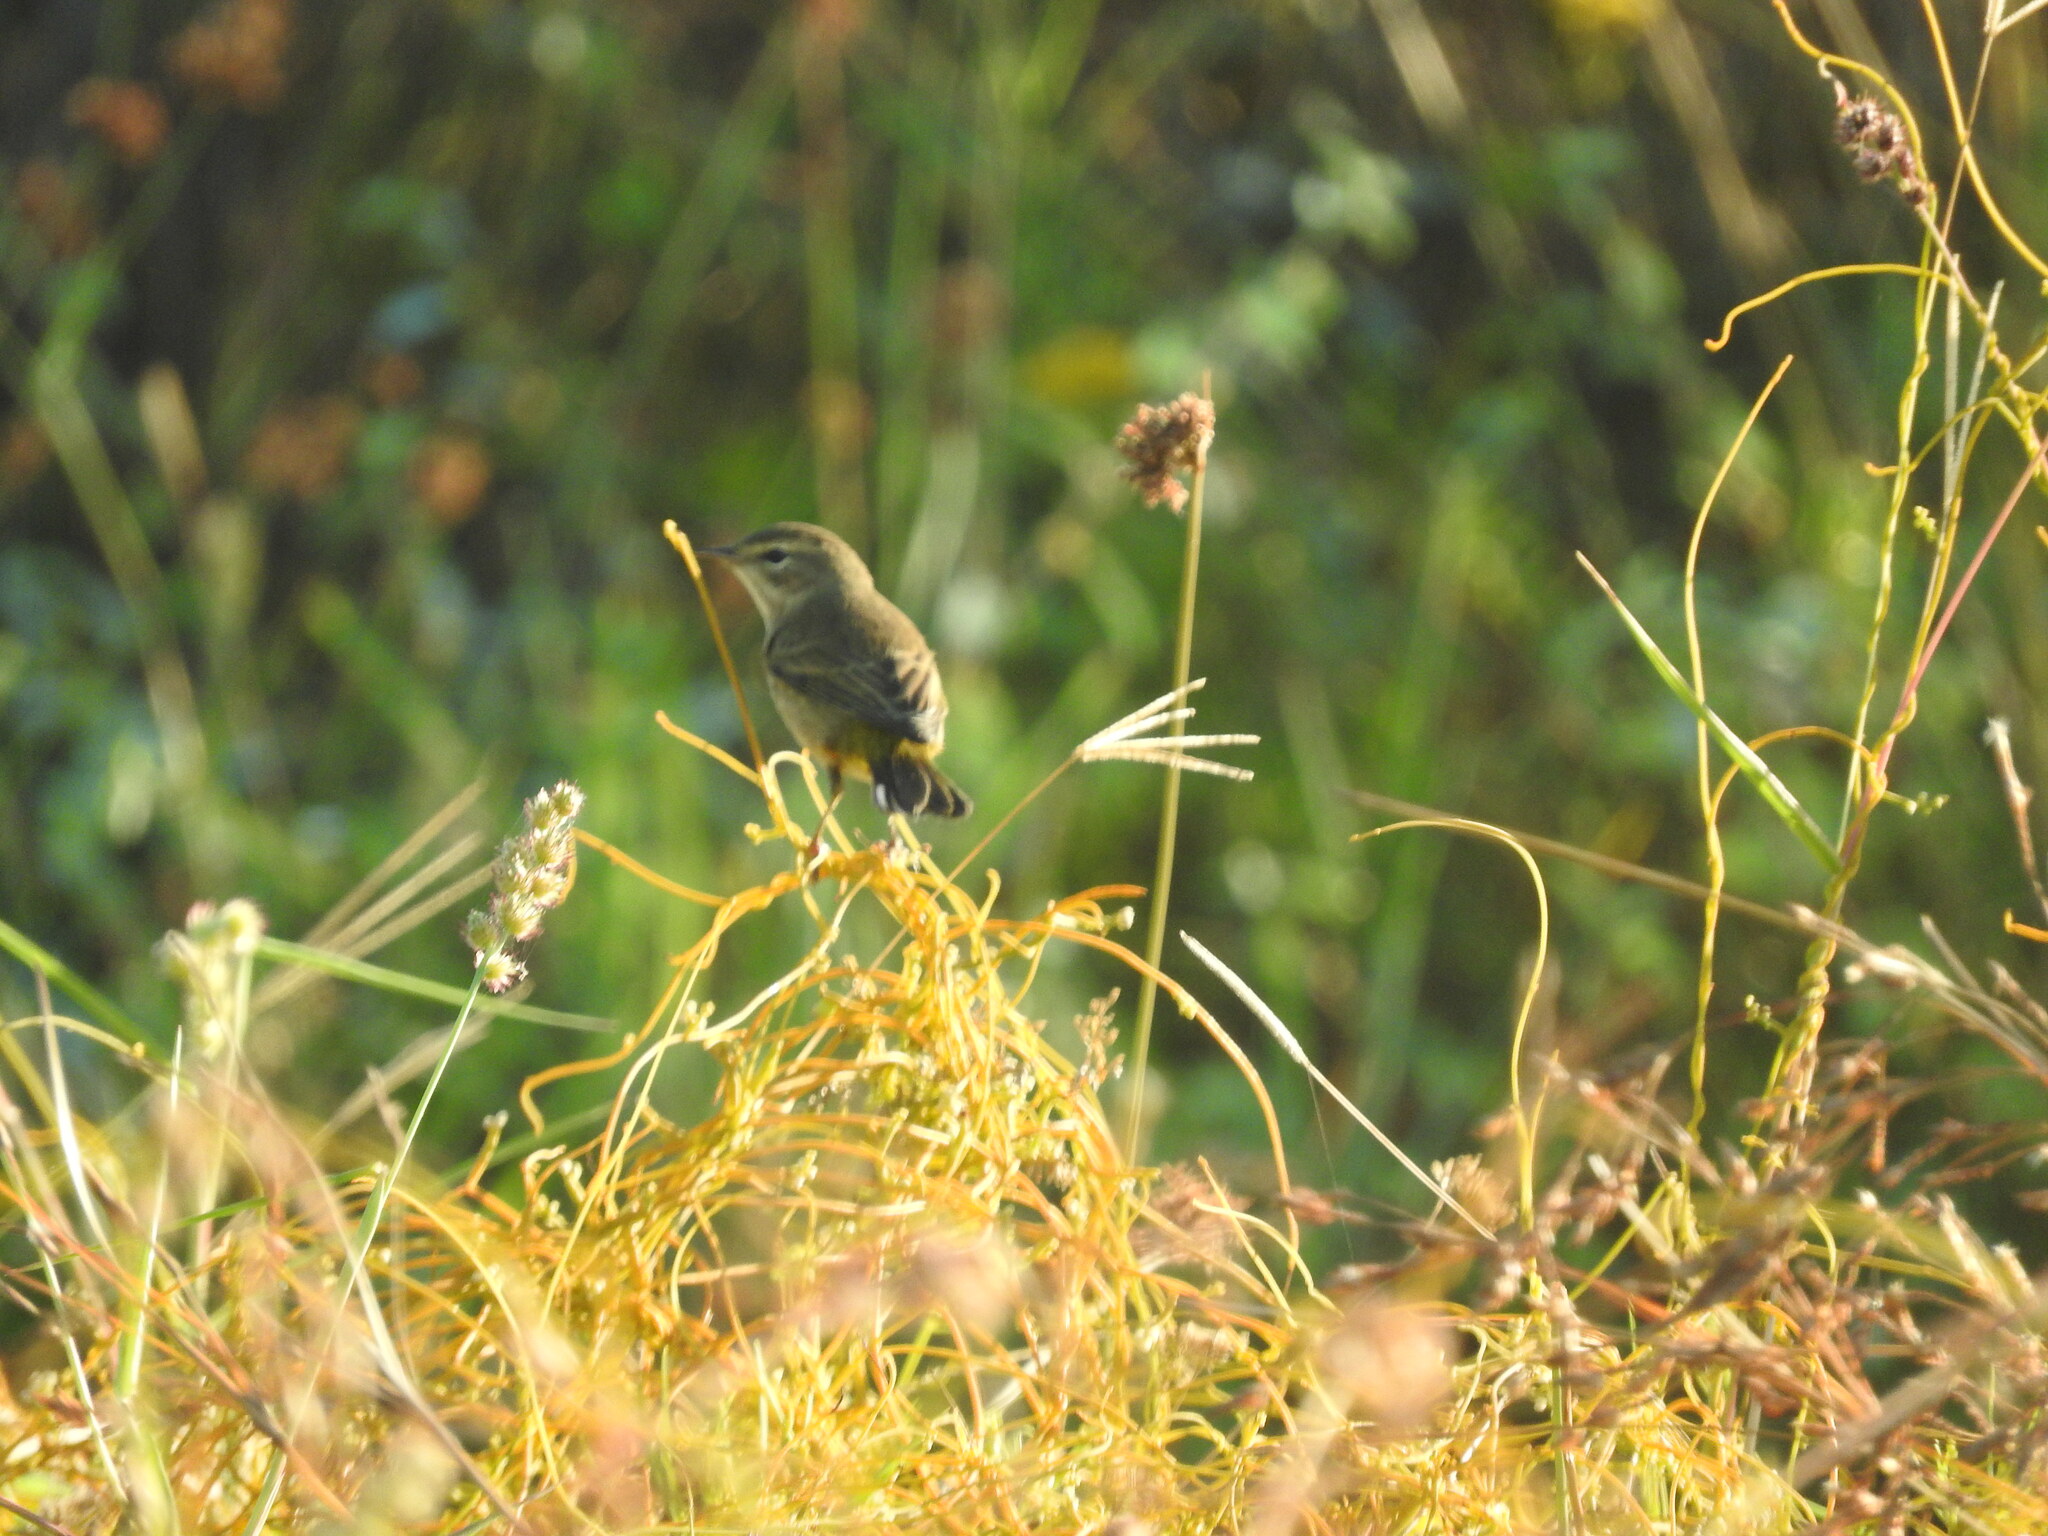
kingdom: Animalia
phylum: Chordata
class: Aves
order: Passeriformes
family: Parulidae
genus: Setophaga
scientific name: Setophaga palmarum
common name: Palm warbler
